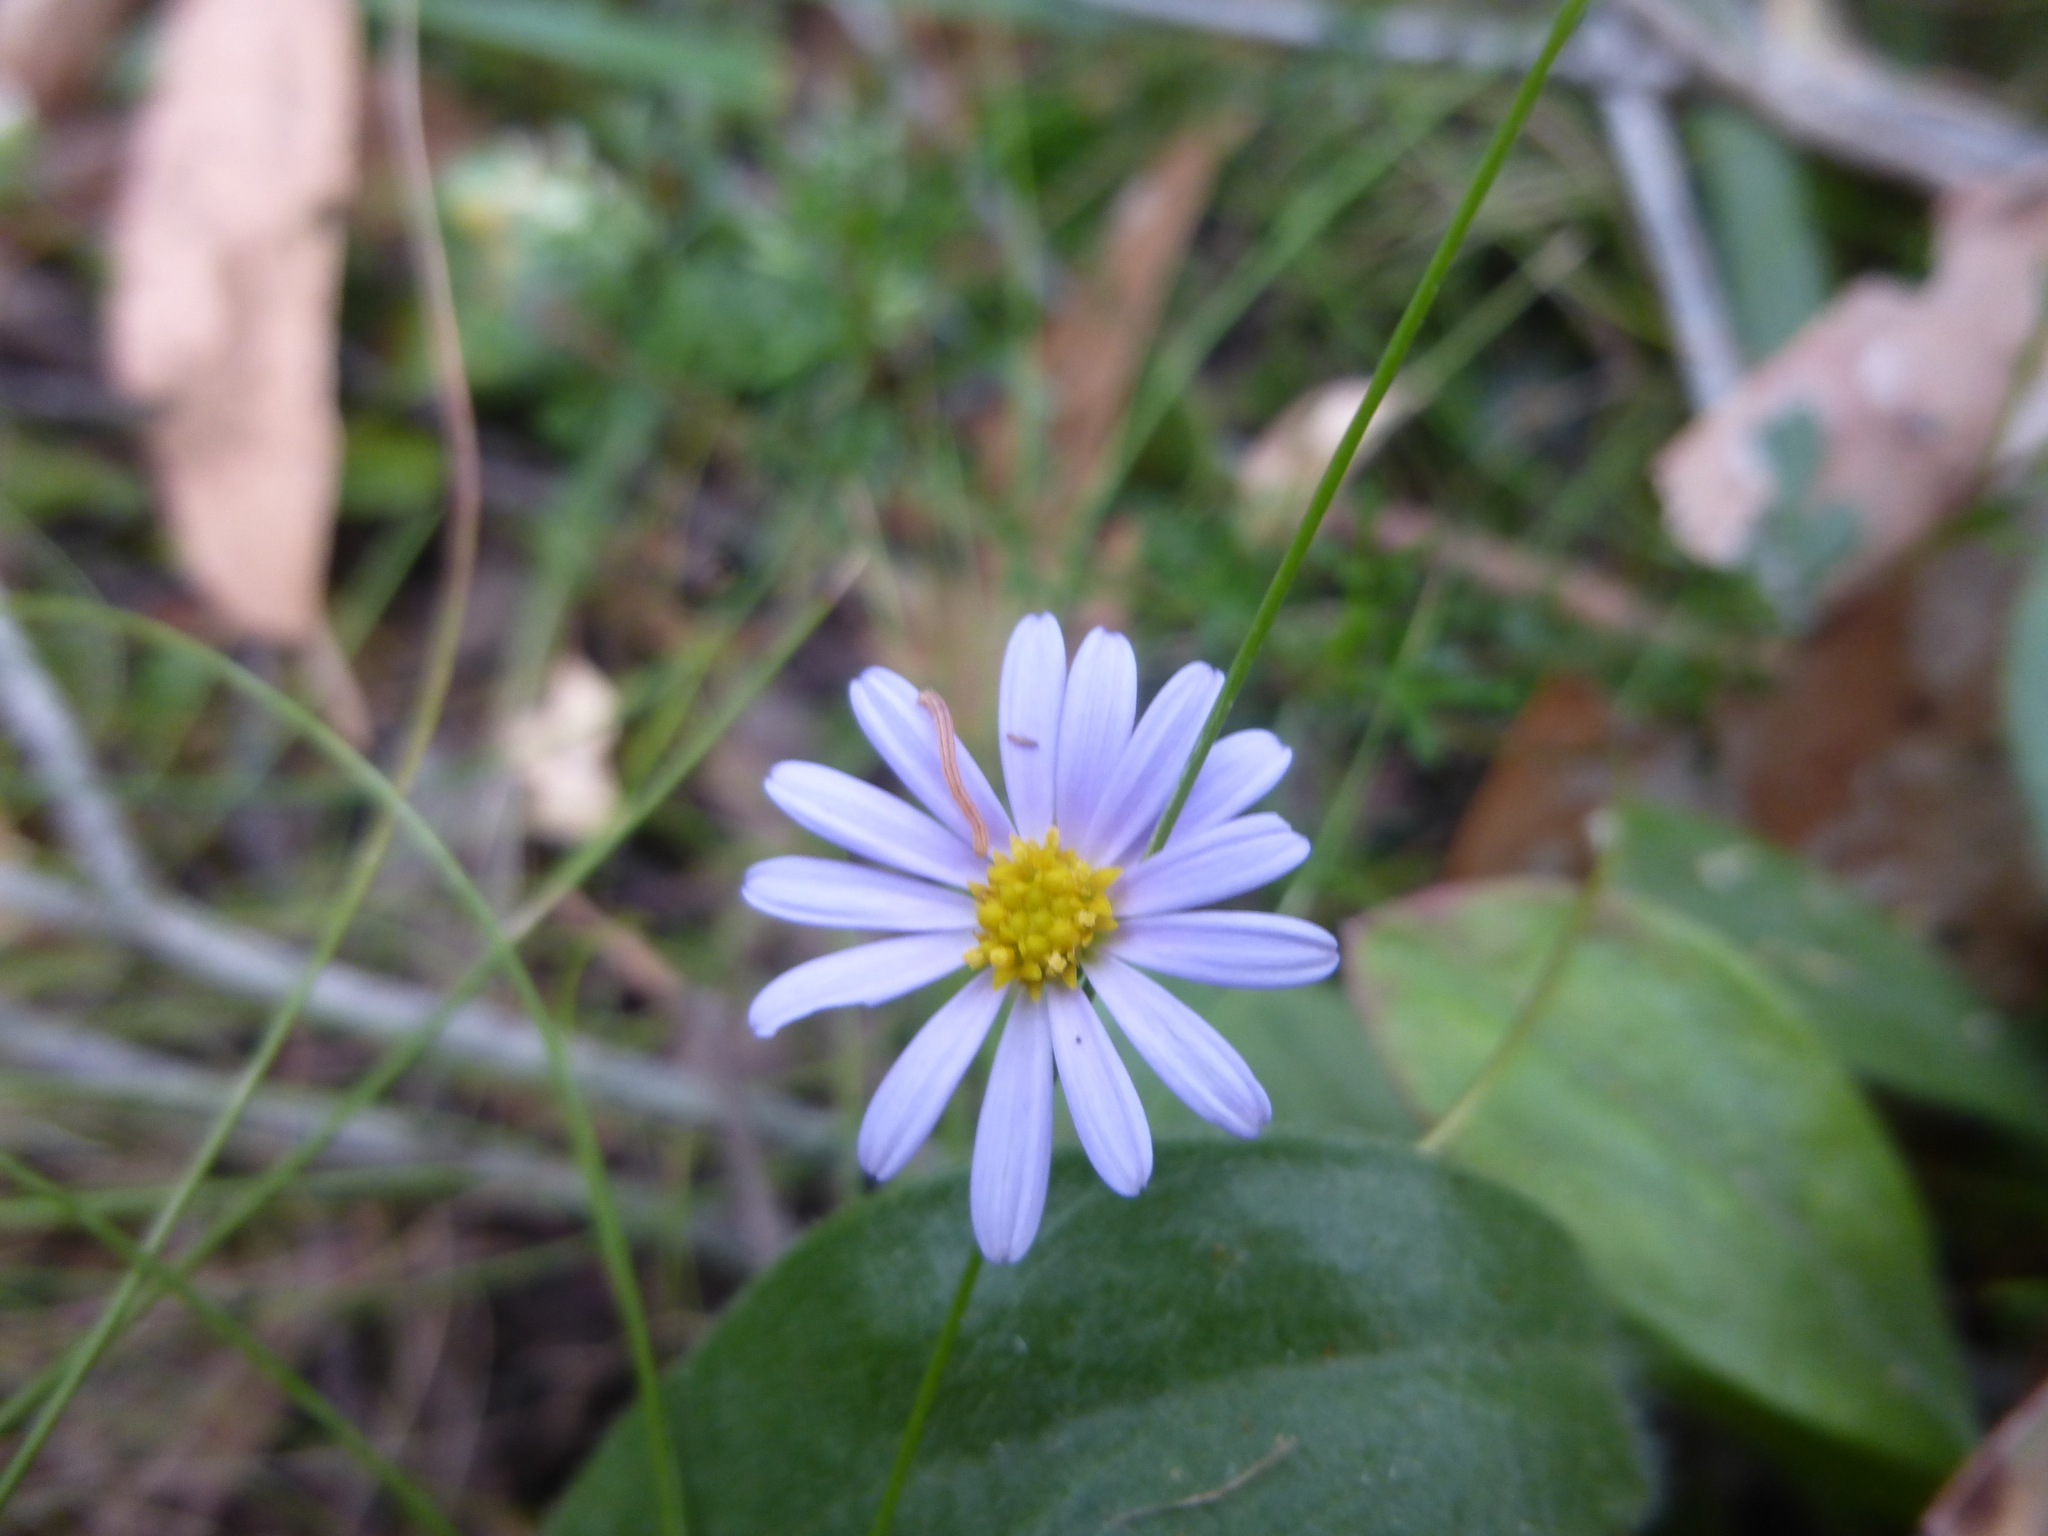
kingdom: Plantae
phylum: Tracheophyta
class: Magnoliopsida
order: Asterales
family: Asteraceae
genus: Brachyscome
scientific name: Brachyscome multifida
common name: Cut-leaf daisy
